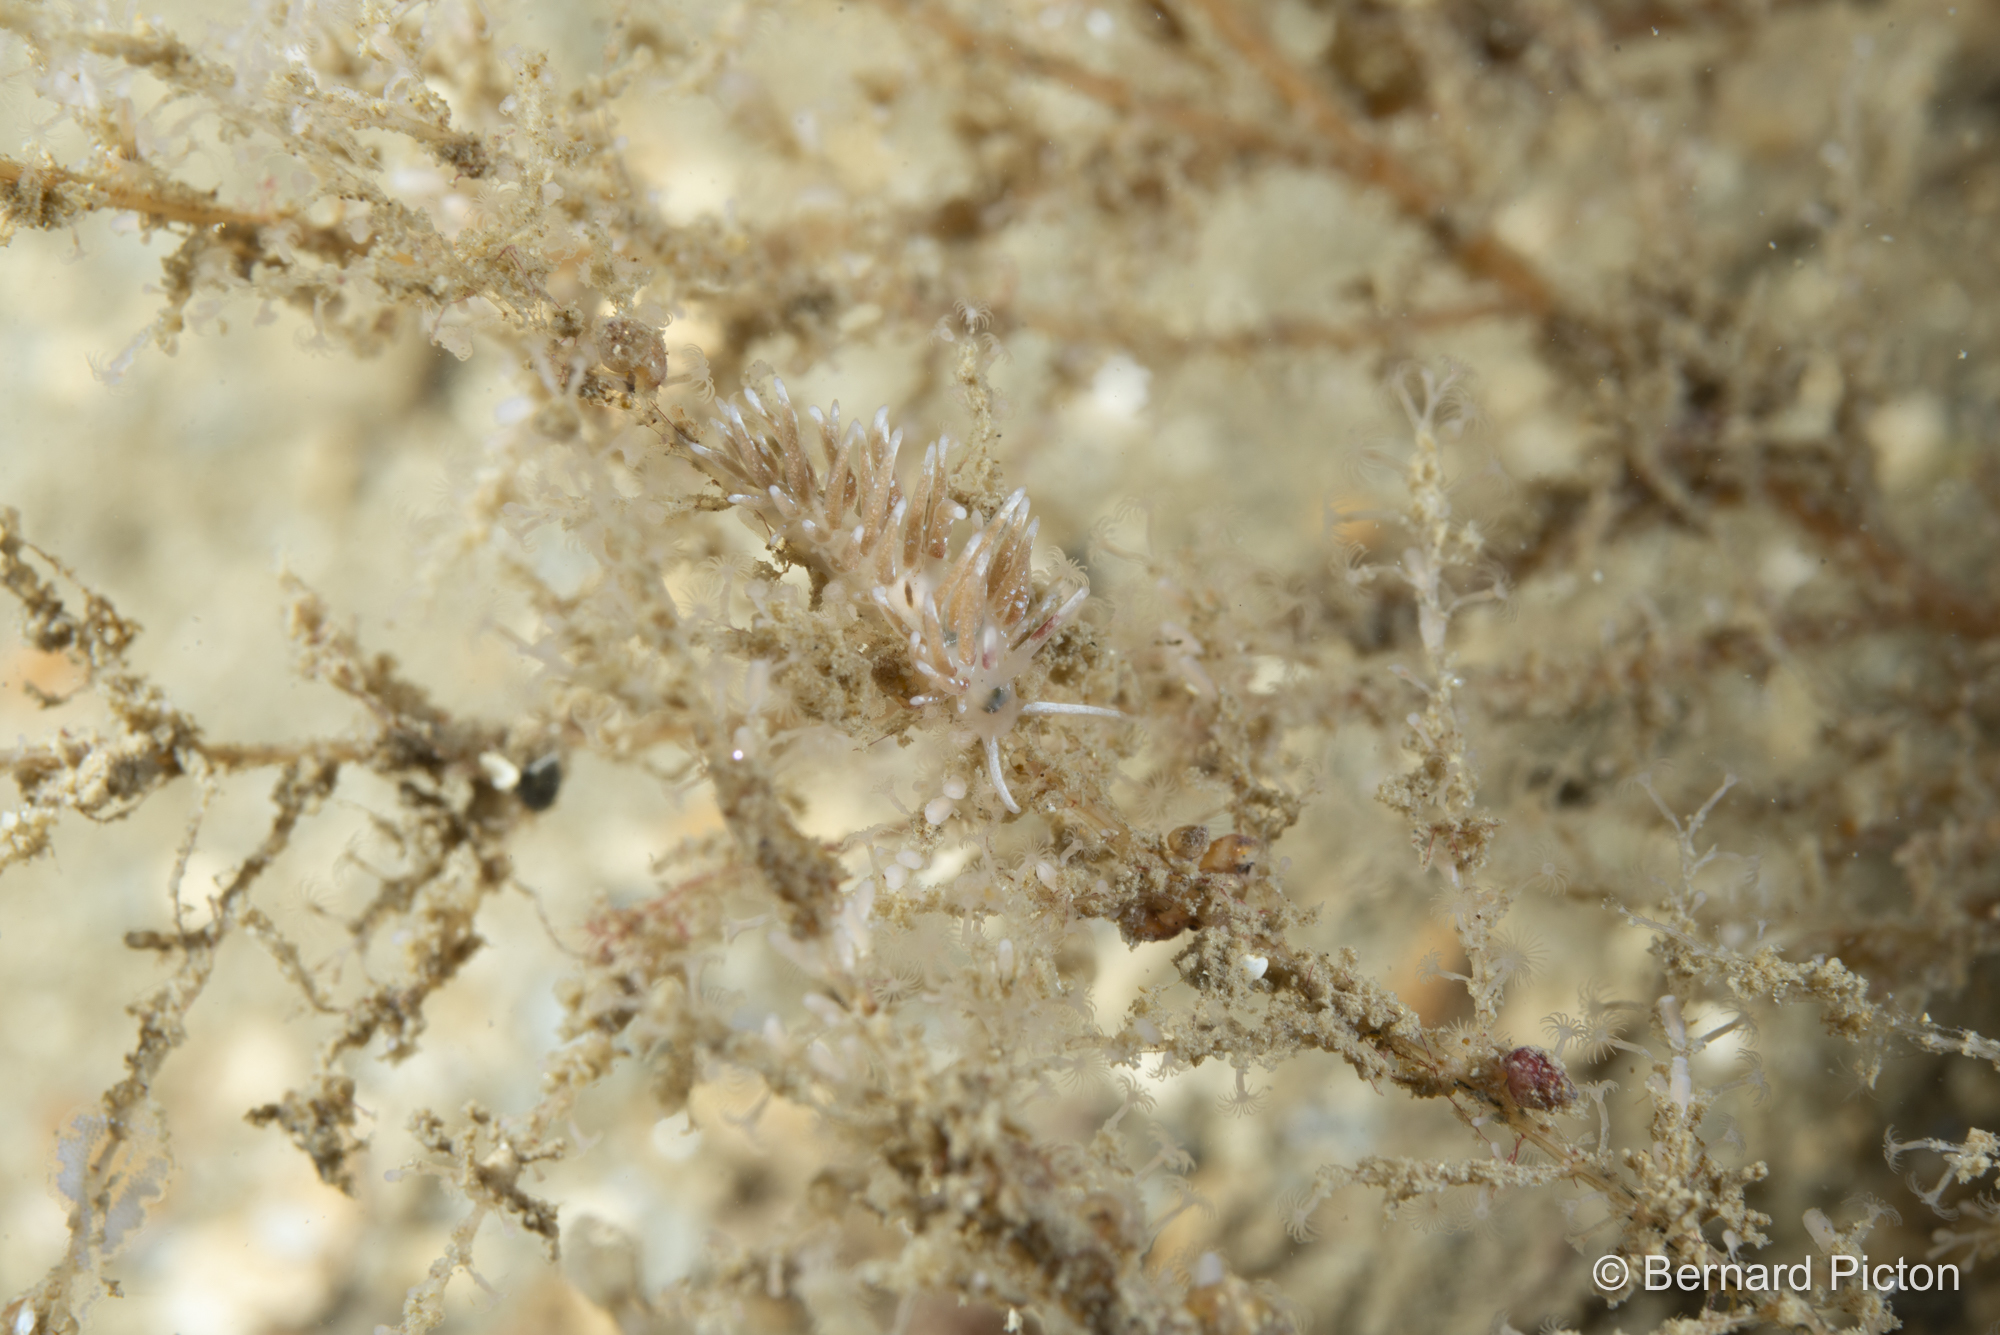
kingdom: Animalia
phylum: Mollusca
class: Gastropoda
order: Nudibranchia
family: Trinchesiidae
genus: Rubramoena
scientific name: Rubramoena rubescens
